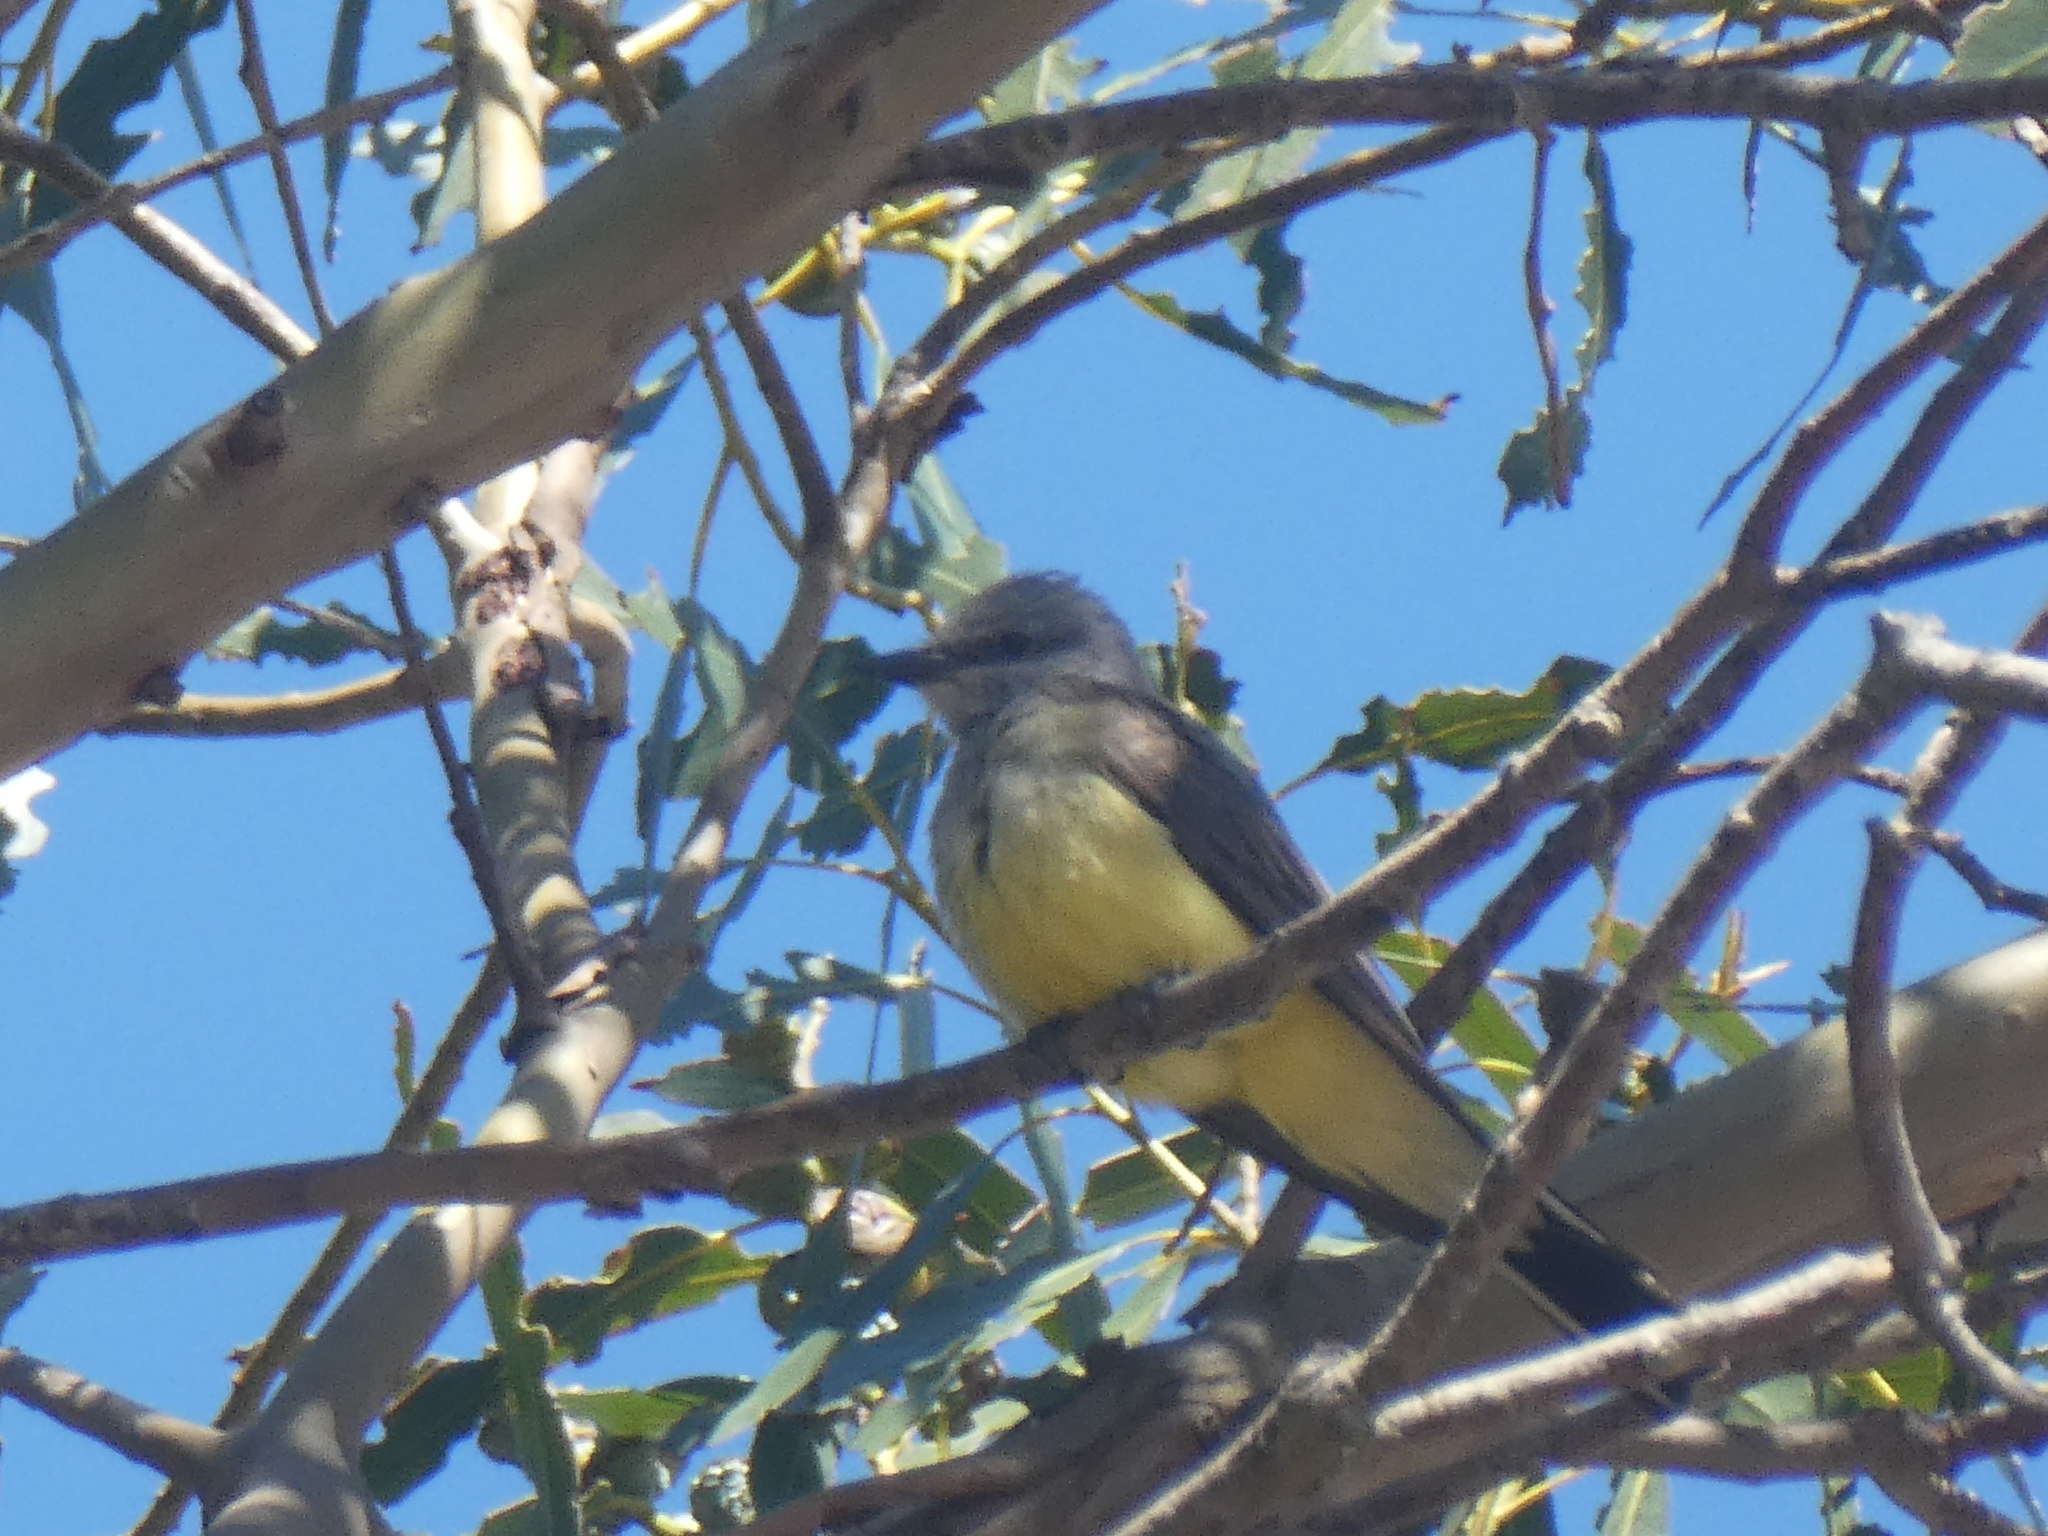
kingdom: Animalia
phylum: Chordata
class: Aves
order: Passeriformes
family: Tyrannidae
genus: Tyrannus
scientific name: Tyrannus verticalis
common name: Western kingbird
